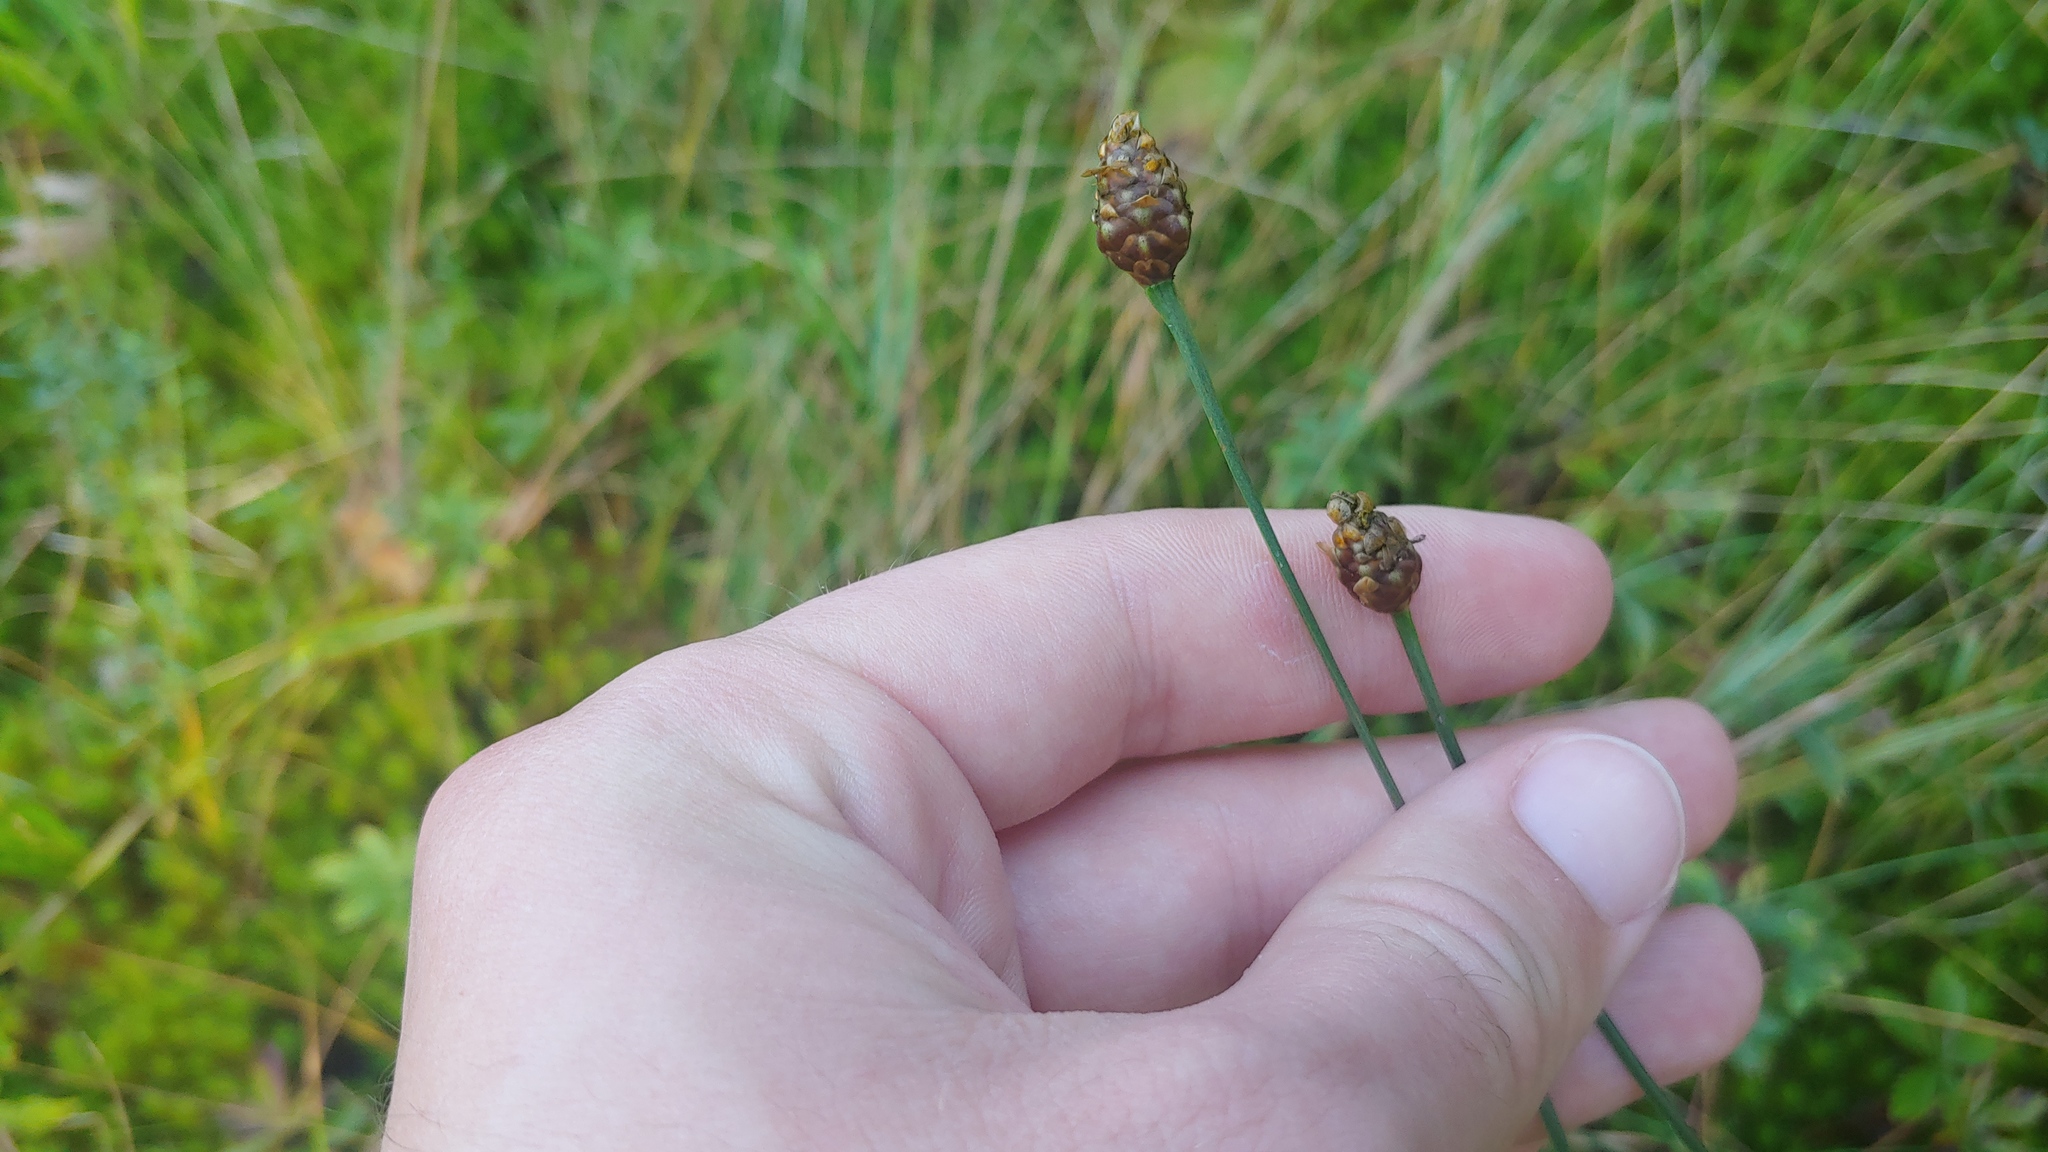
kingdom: Plantae
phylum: Tracheophyta
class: Liliopsida
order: Poales
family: Xyridaceae
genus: Xyris
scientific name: Xyris torta
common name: Common yelloweyed grass
